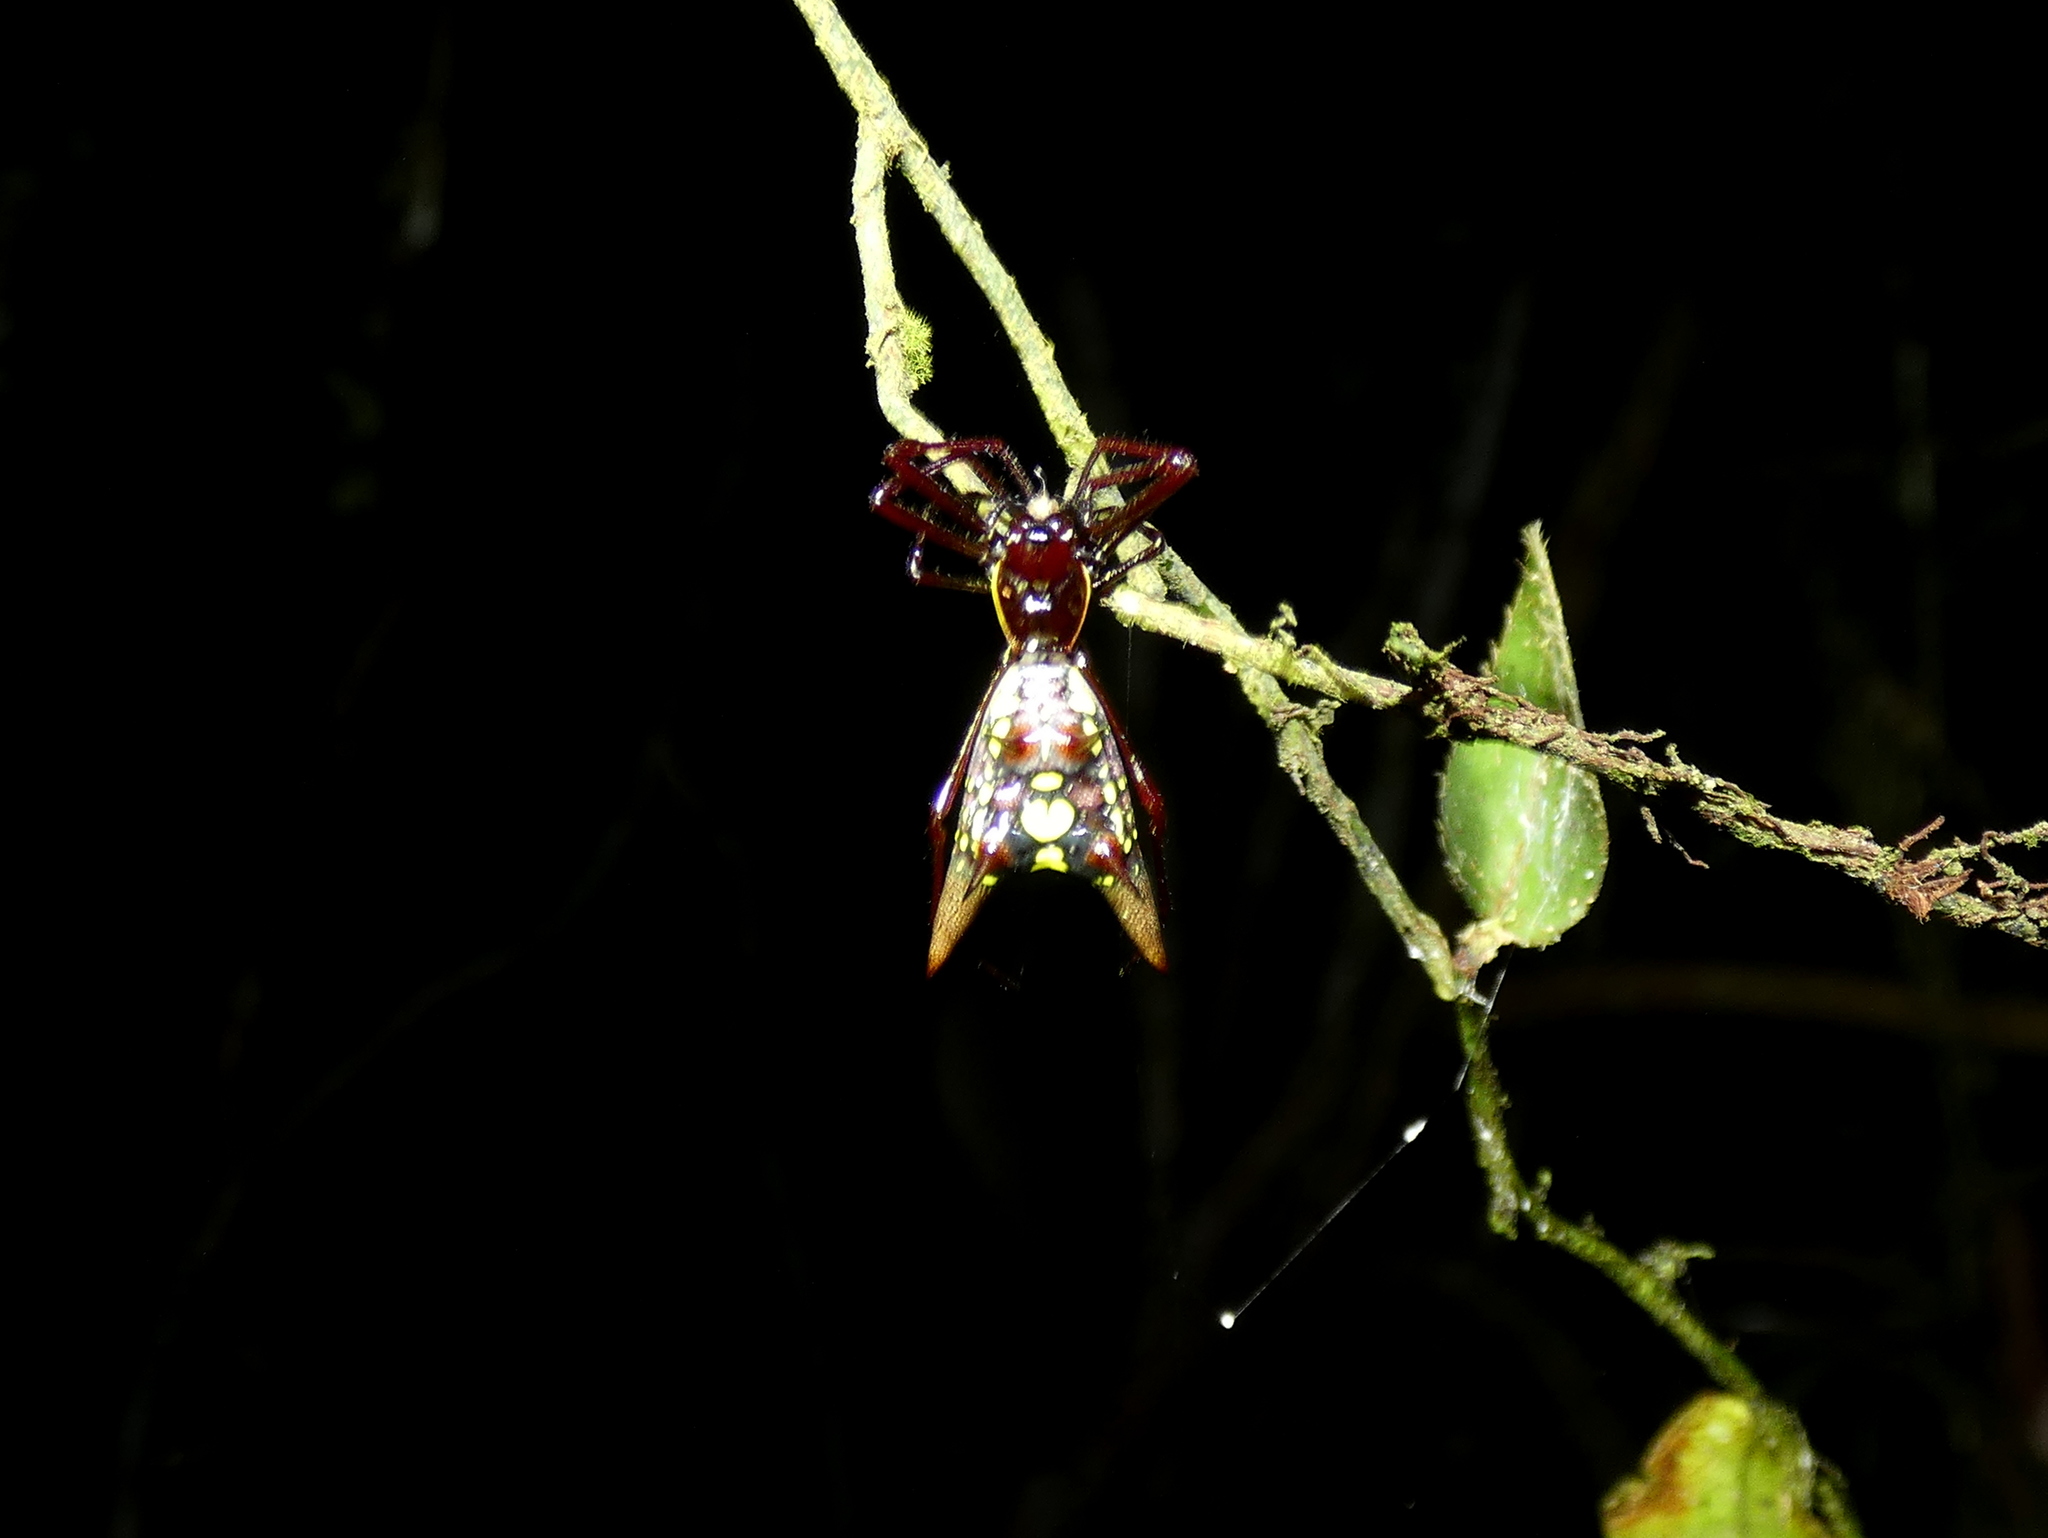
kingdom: Animalia
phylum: Arthropoda
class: Arachnida
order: Araneae
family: Araneidae
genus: Micrathena
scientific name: Micrathena coca
